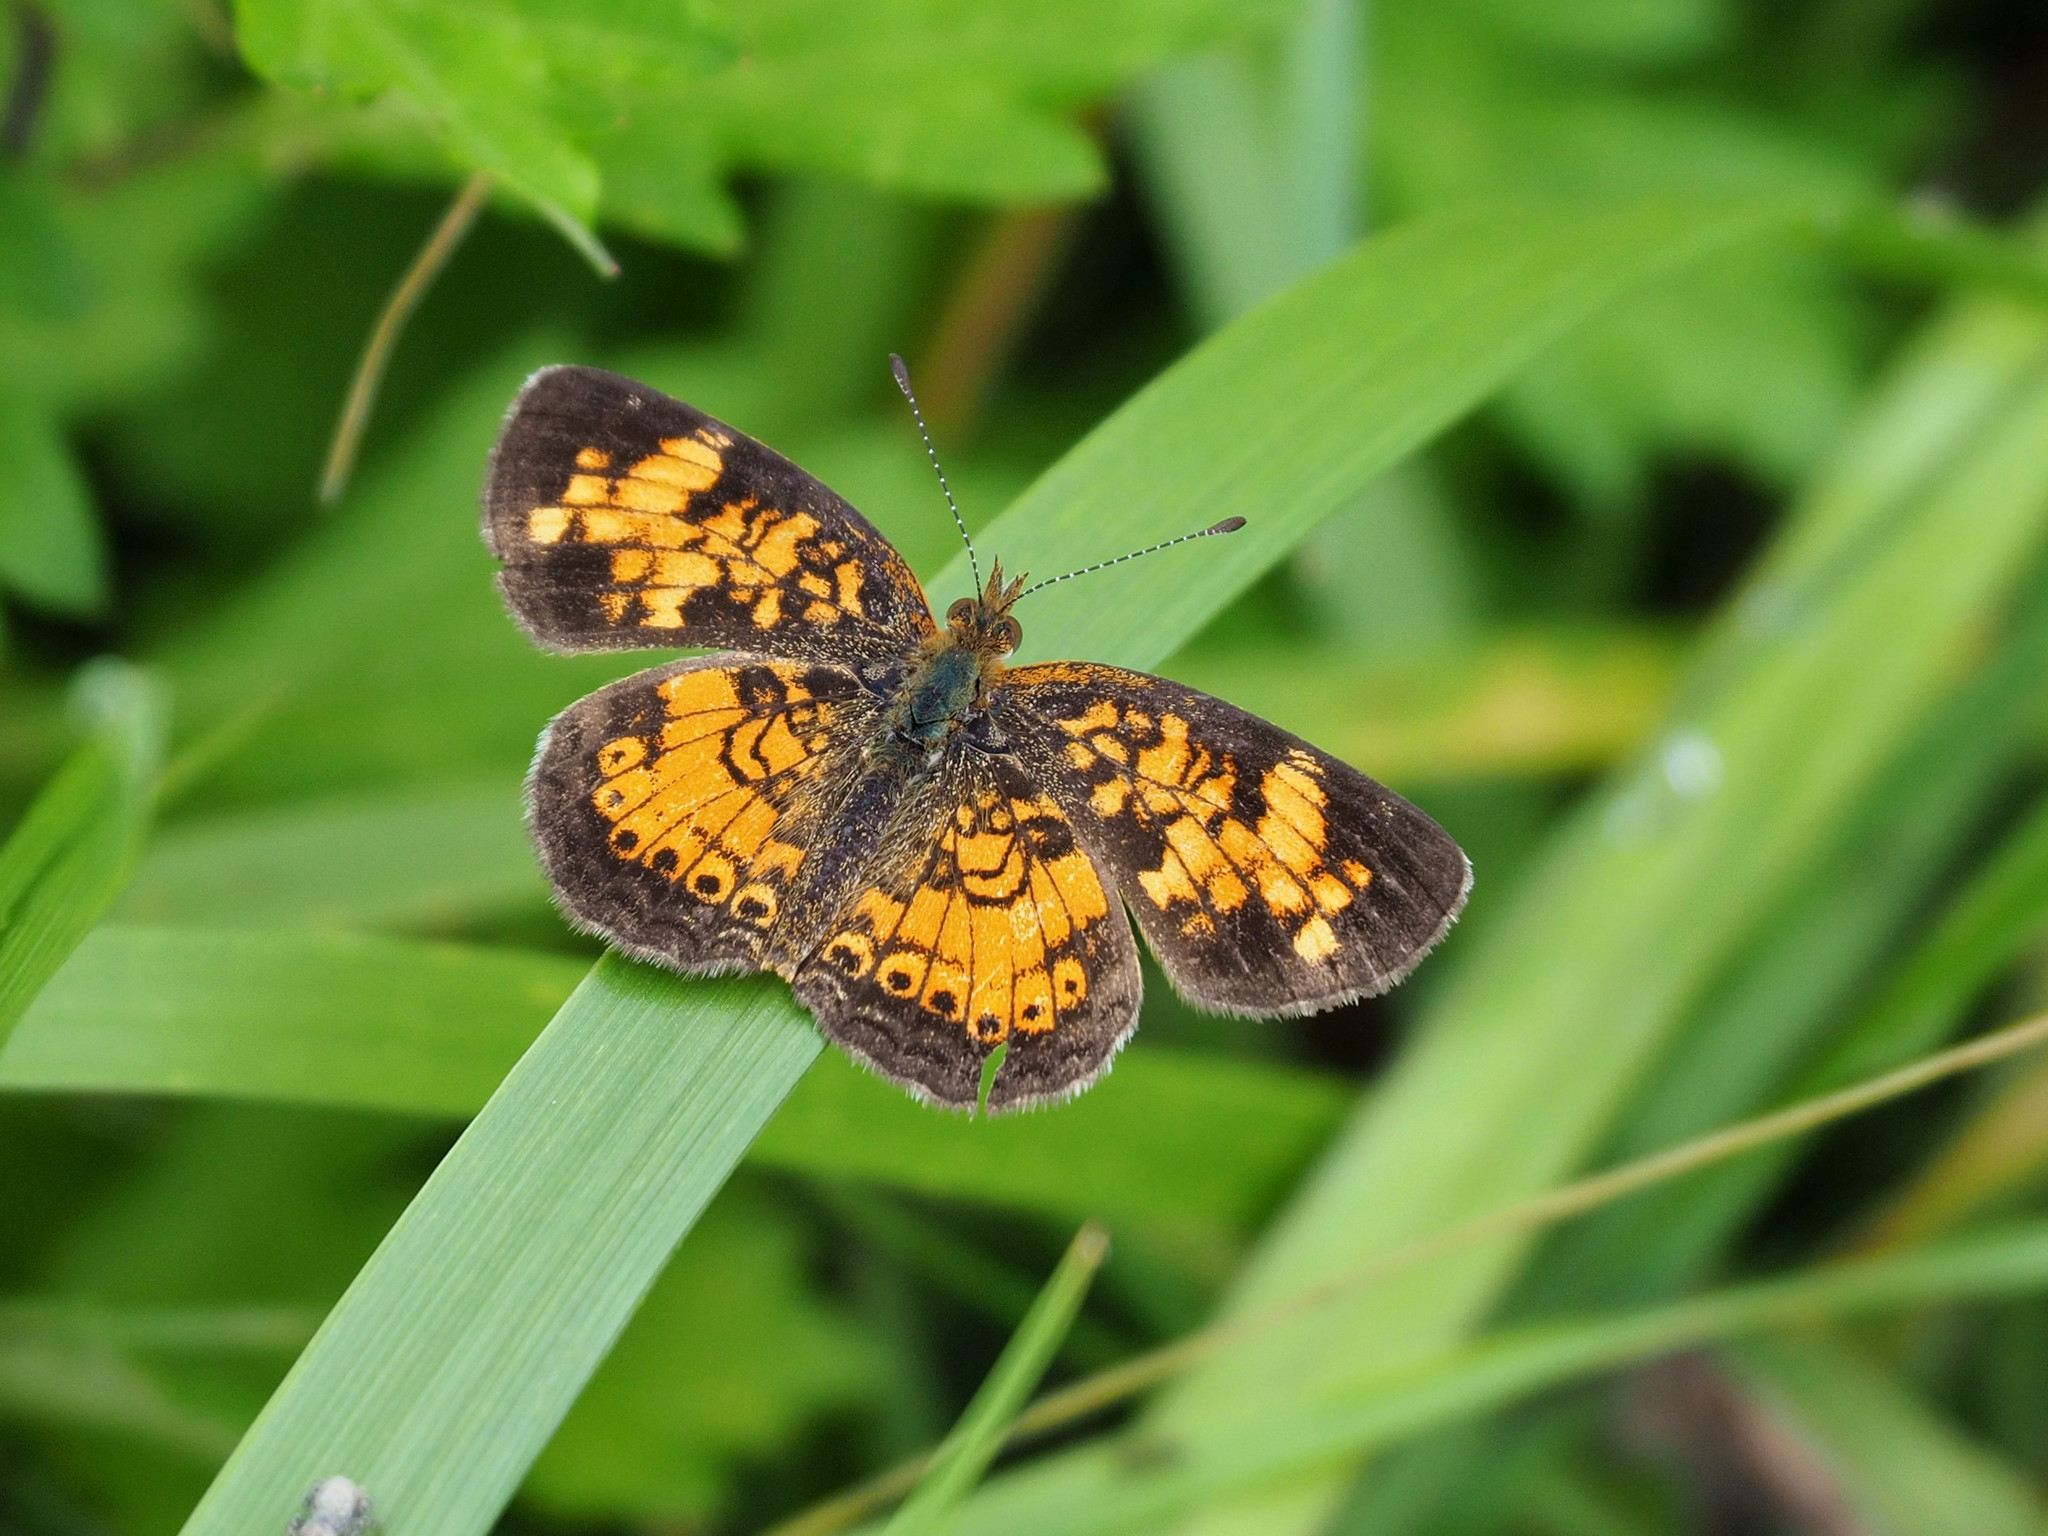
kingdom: Animalia
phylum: Arthropoda
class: Insecta
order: Lepidoptera
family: Nymphalidae
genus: Phyciodes
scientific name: Phyciodes tharos
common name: Pearl crescent
